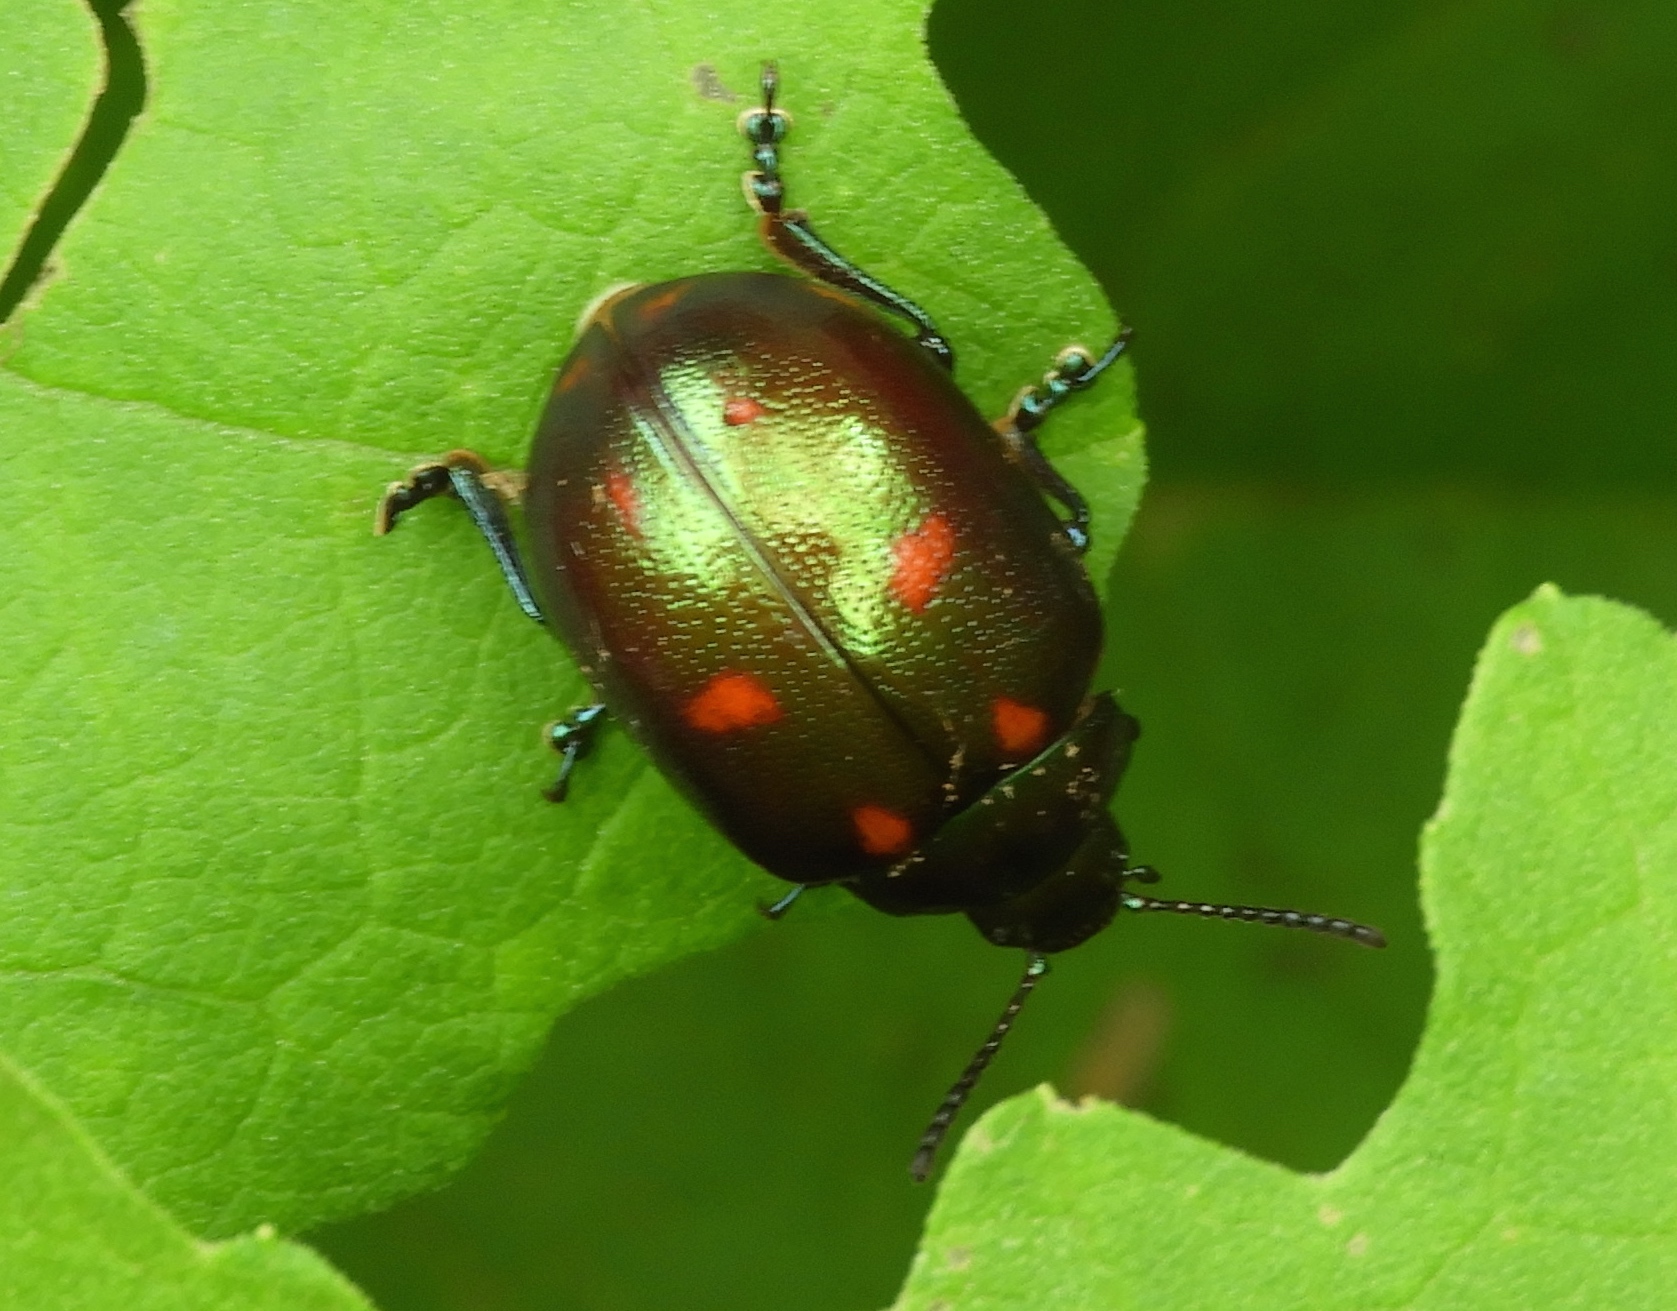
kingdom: Animalia
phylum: Arthropoda
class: Insecta
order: Coleoptera
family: Chrysomelidae
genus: Leptinotarsa
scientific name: Leptinotarsa behrensi
